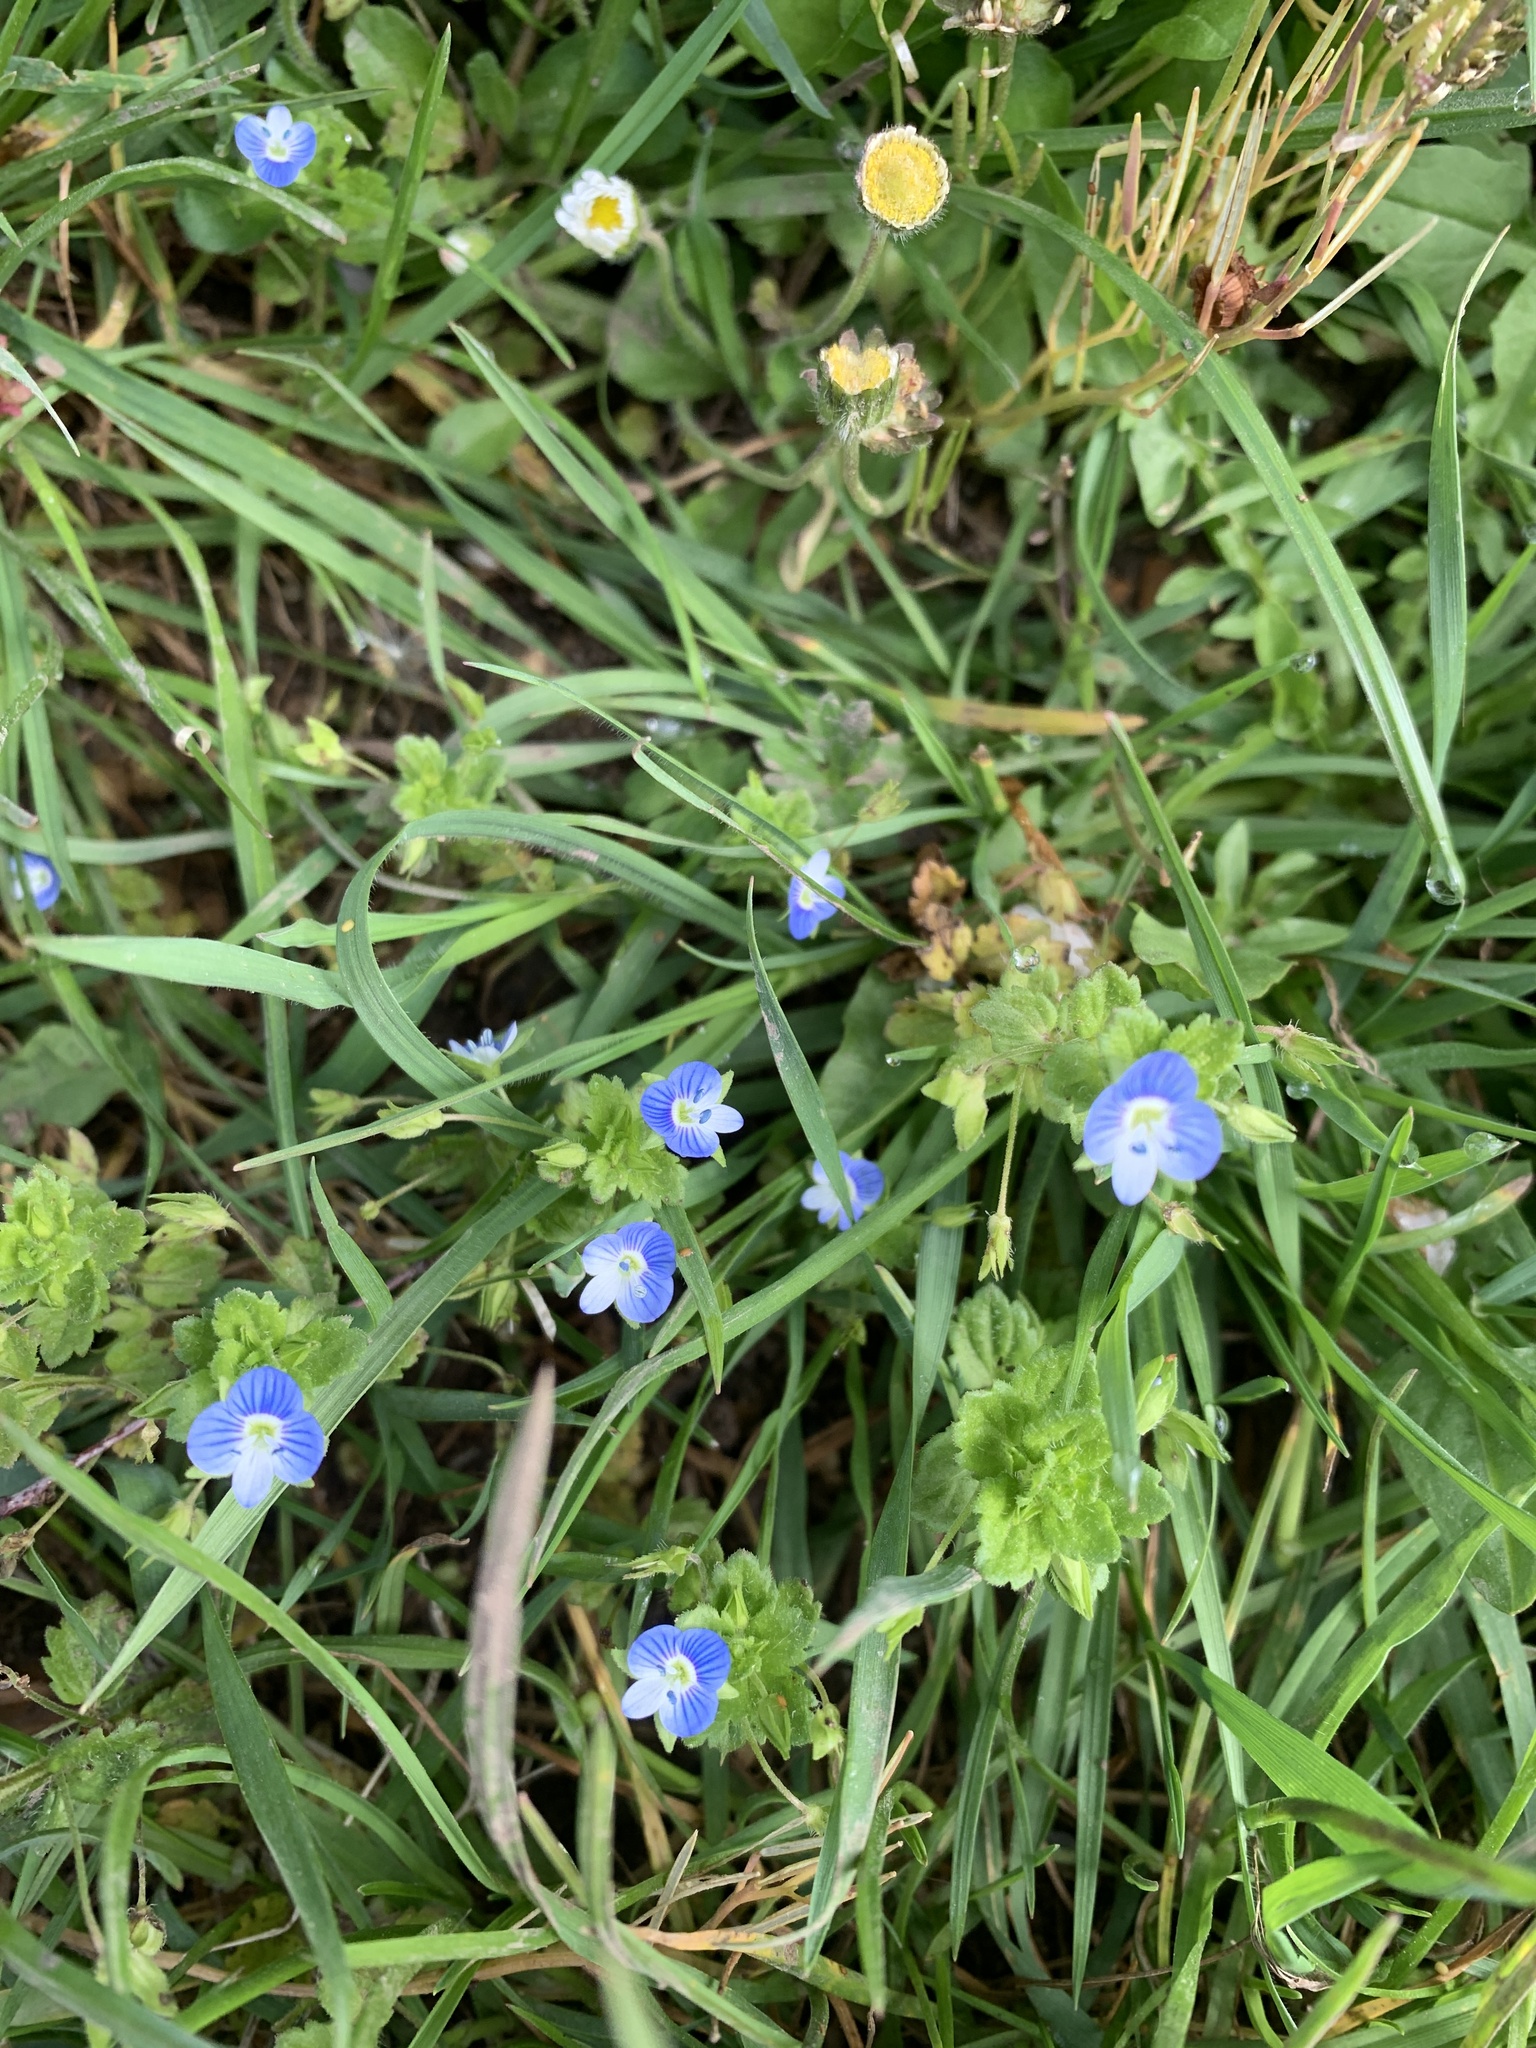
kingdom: Plantae
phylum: Tracheophyta
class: Magnoliopsida
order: Lamiales
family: Plantaginaceae
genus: Veronica
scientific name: Veronica persica
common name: Common field-speedwell
